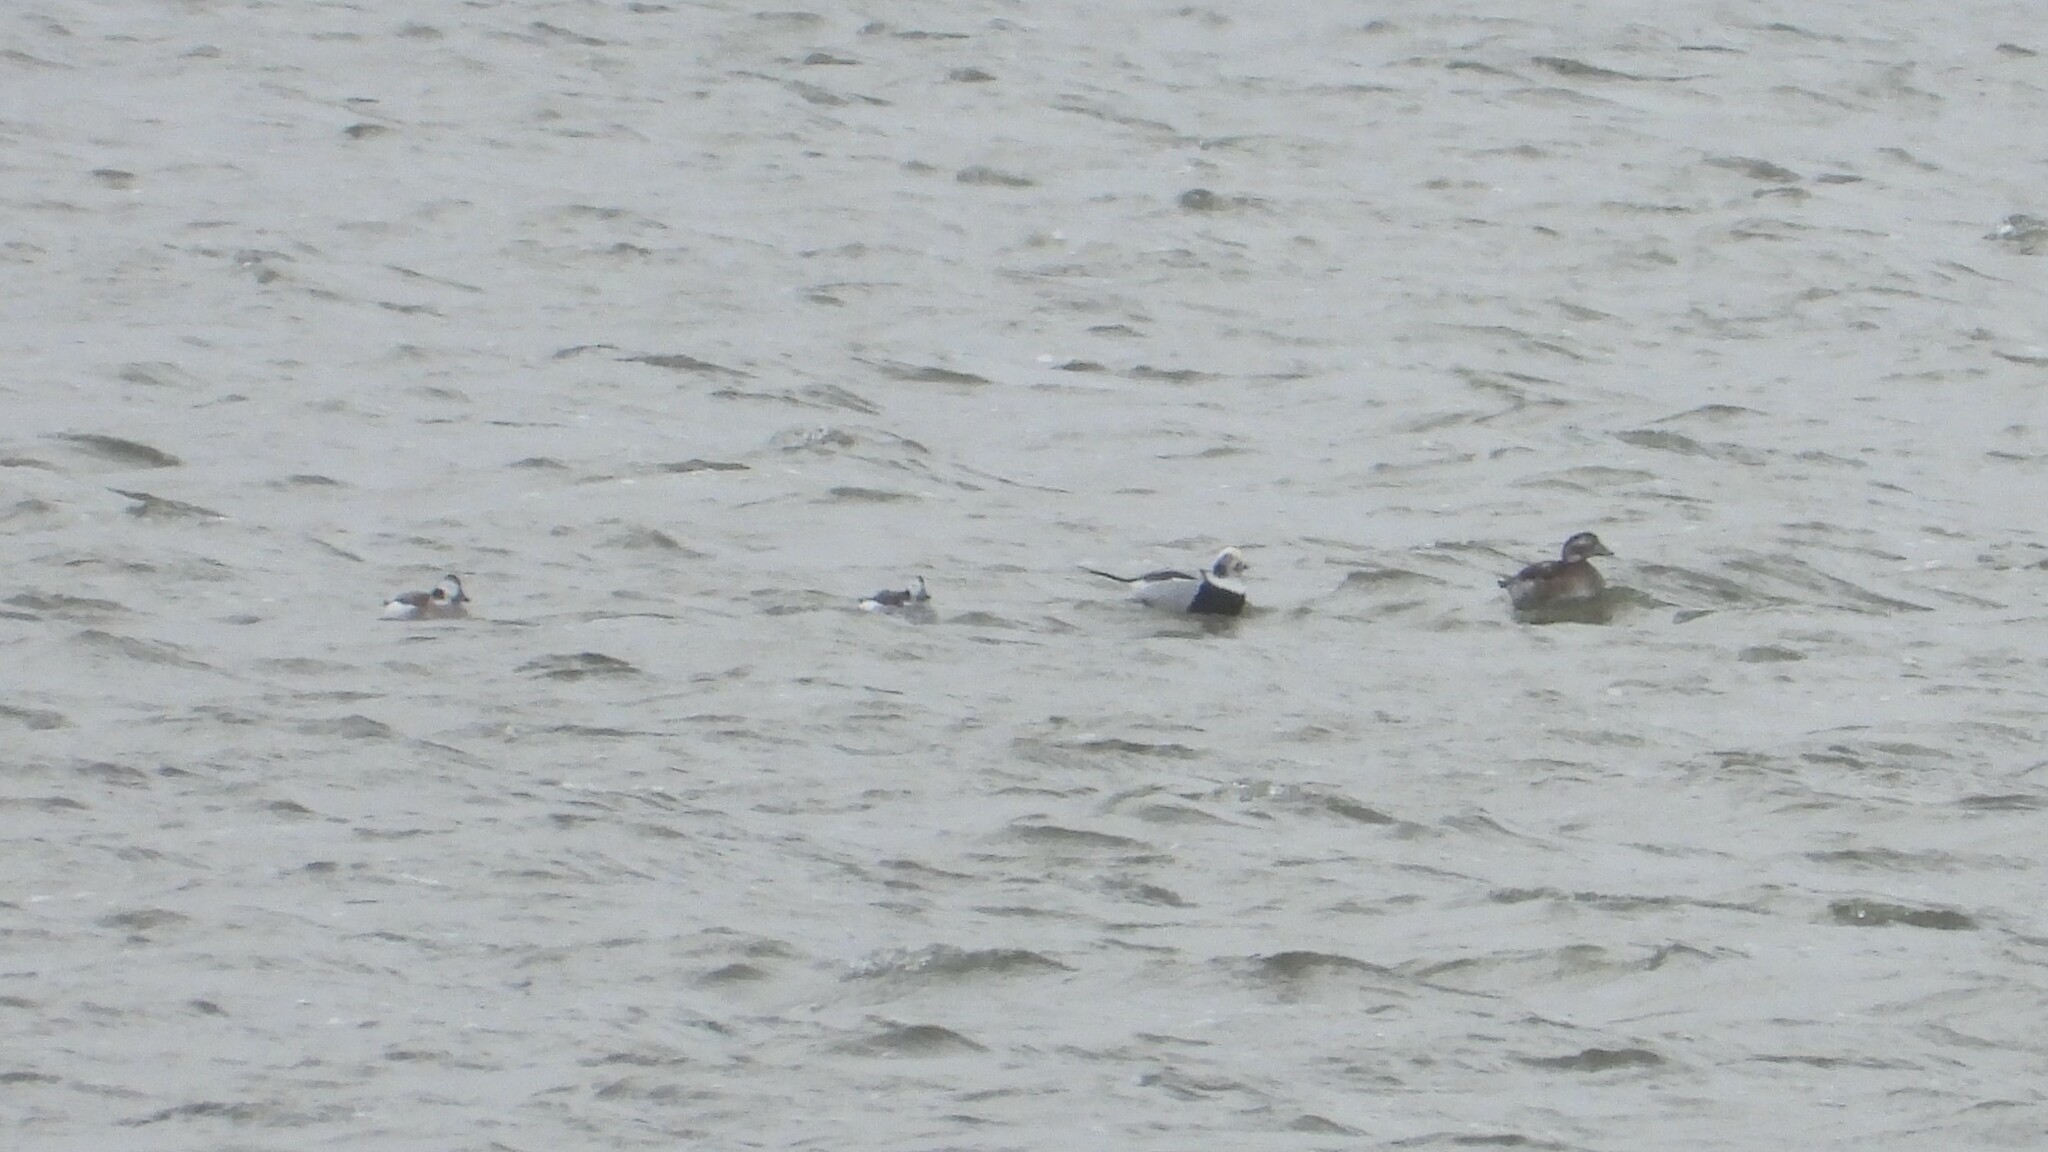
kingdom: Animalia
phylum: Chordata
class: Aves
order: Anseriformes
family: Anatidae
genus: Clangula
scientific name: Clangula hyemalis
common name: Long-tailed duck
